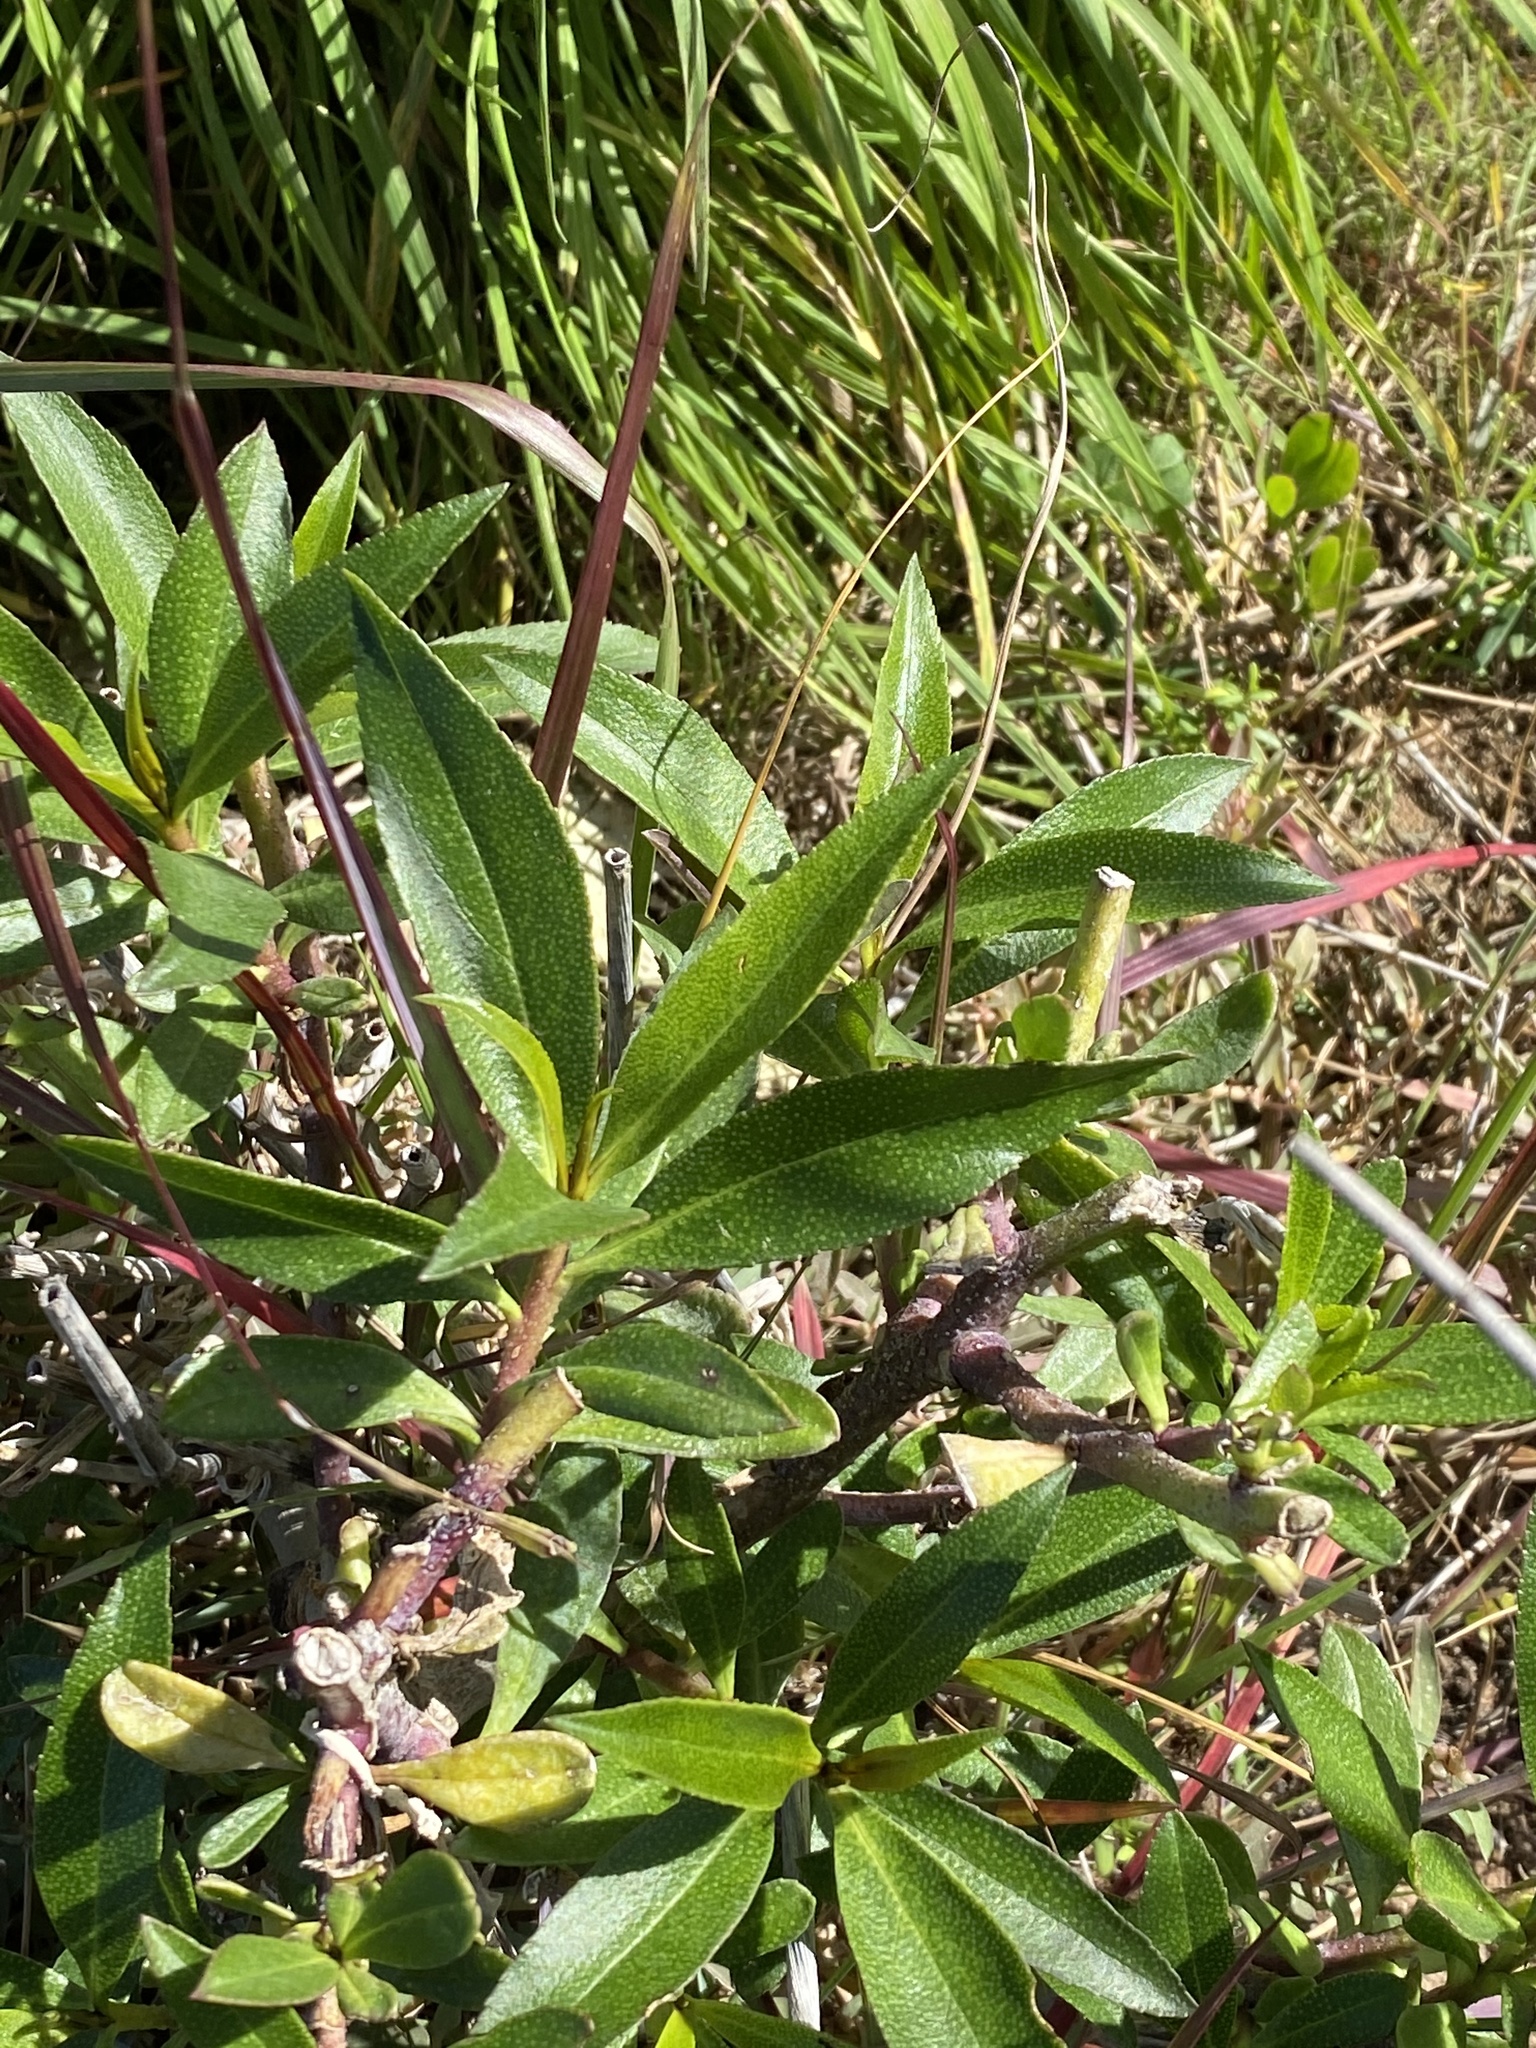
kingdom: Plantae
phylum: Tracheophyta
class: Magnoliopsida
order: Lamiales
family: Scrophulariaceae
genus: Myoporum
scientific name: Myoporum laetum
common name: Ngaio tree
